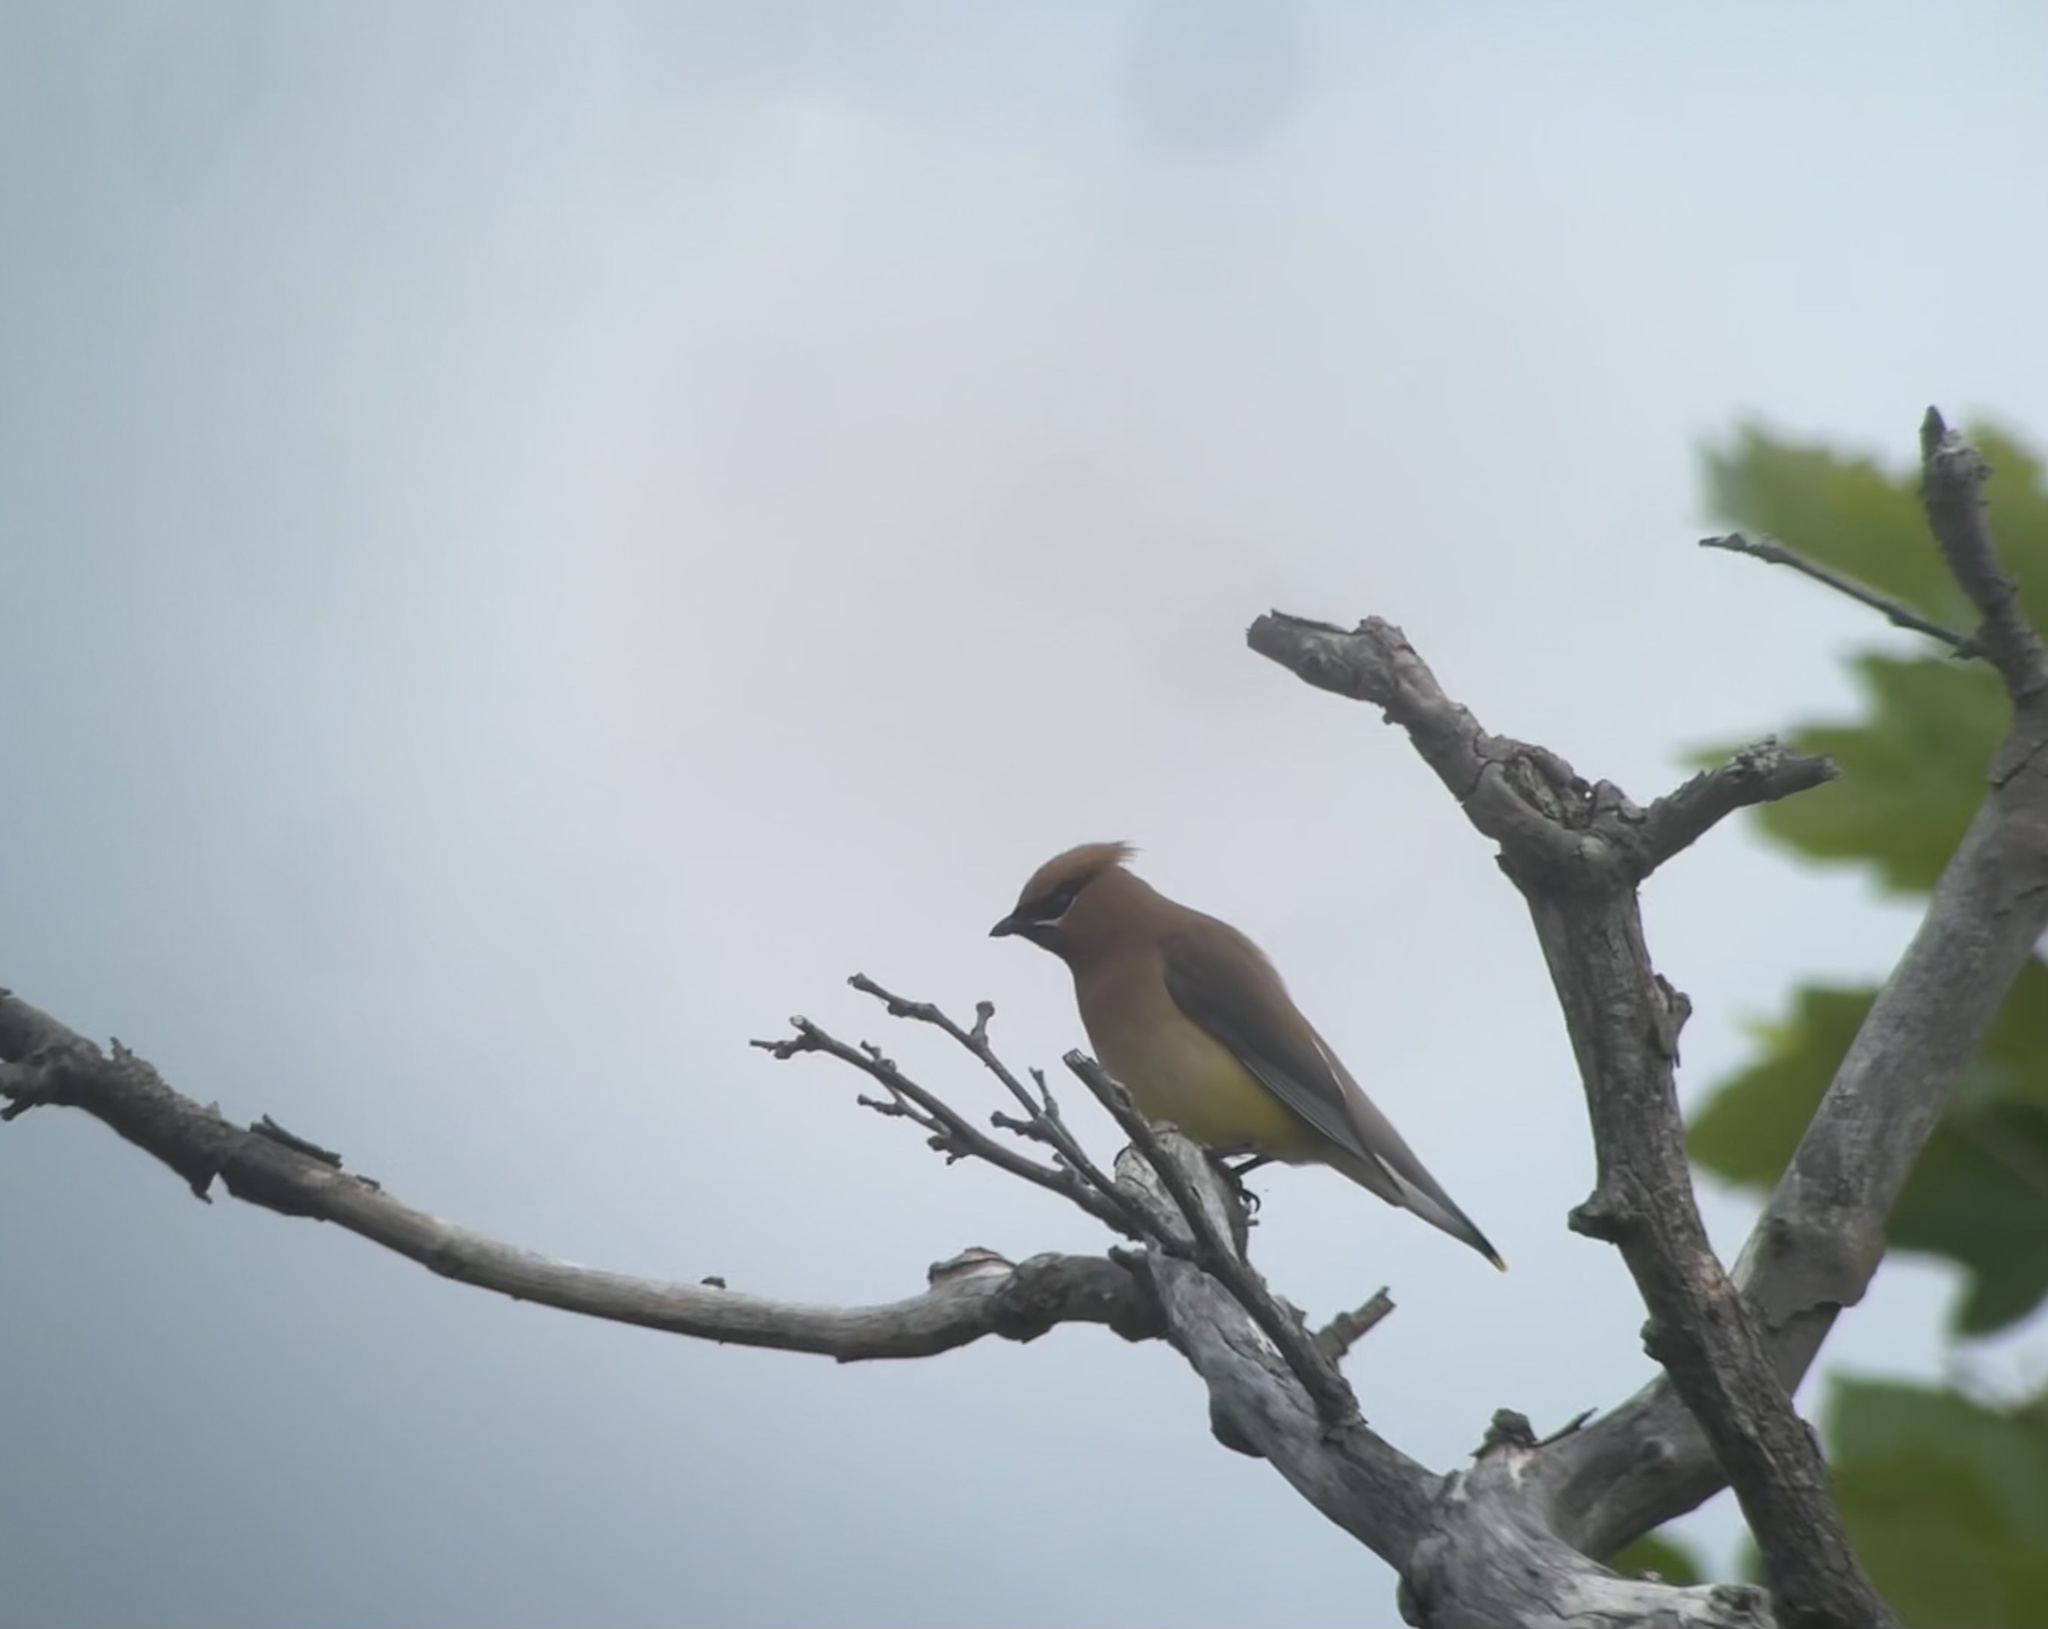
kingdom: Animalia
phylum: Chordata
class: Aves
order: Passeriformes
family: Bombycillidae
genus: Bombycilla
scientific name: Bombycilla cedrorum
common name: Cedar waxwing
